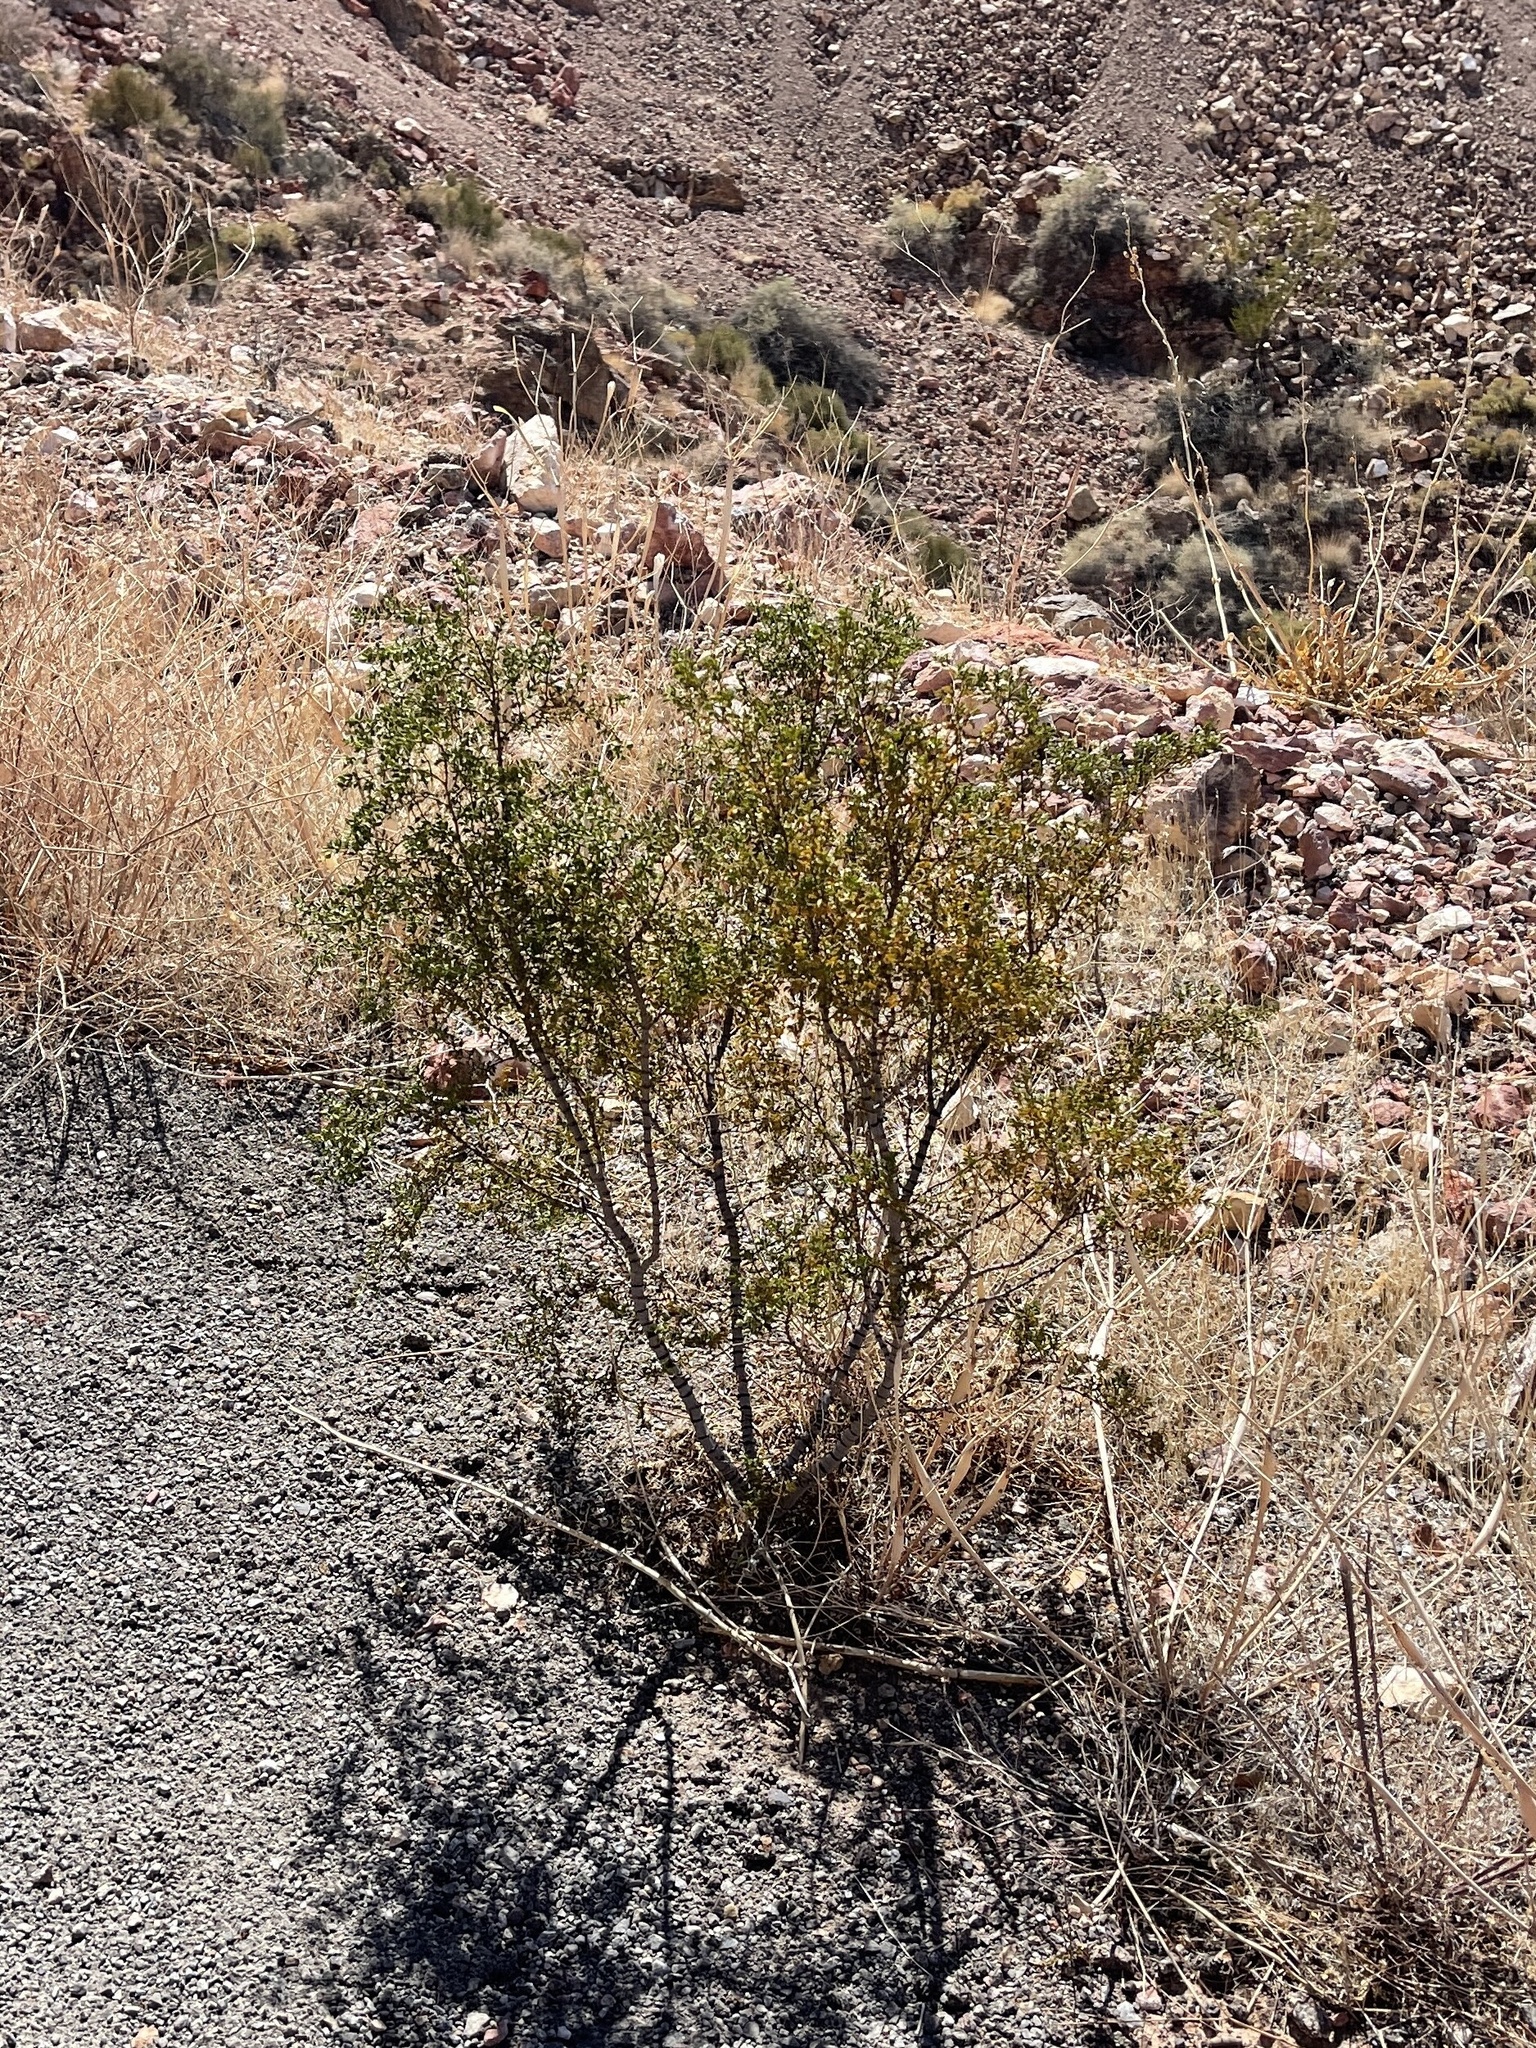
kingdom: Plantae
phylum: Tracheophyta
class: Magnoliopsida
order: Zygophyllales
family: Zygophyllaceae
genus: Larrea
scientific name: Larrea tridentata
